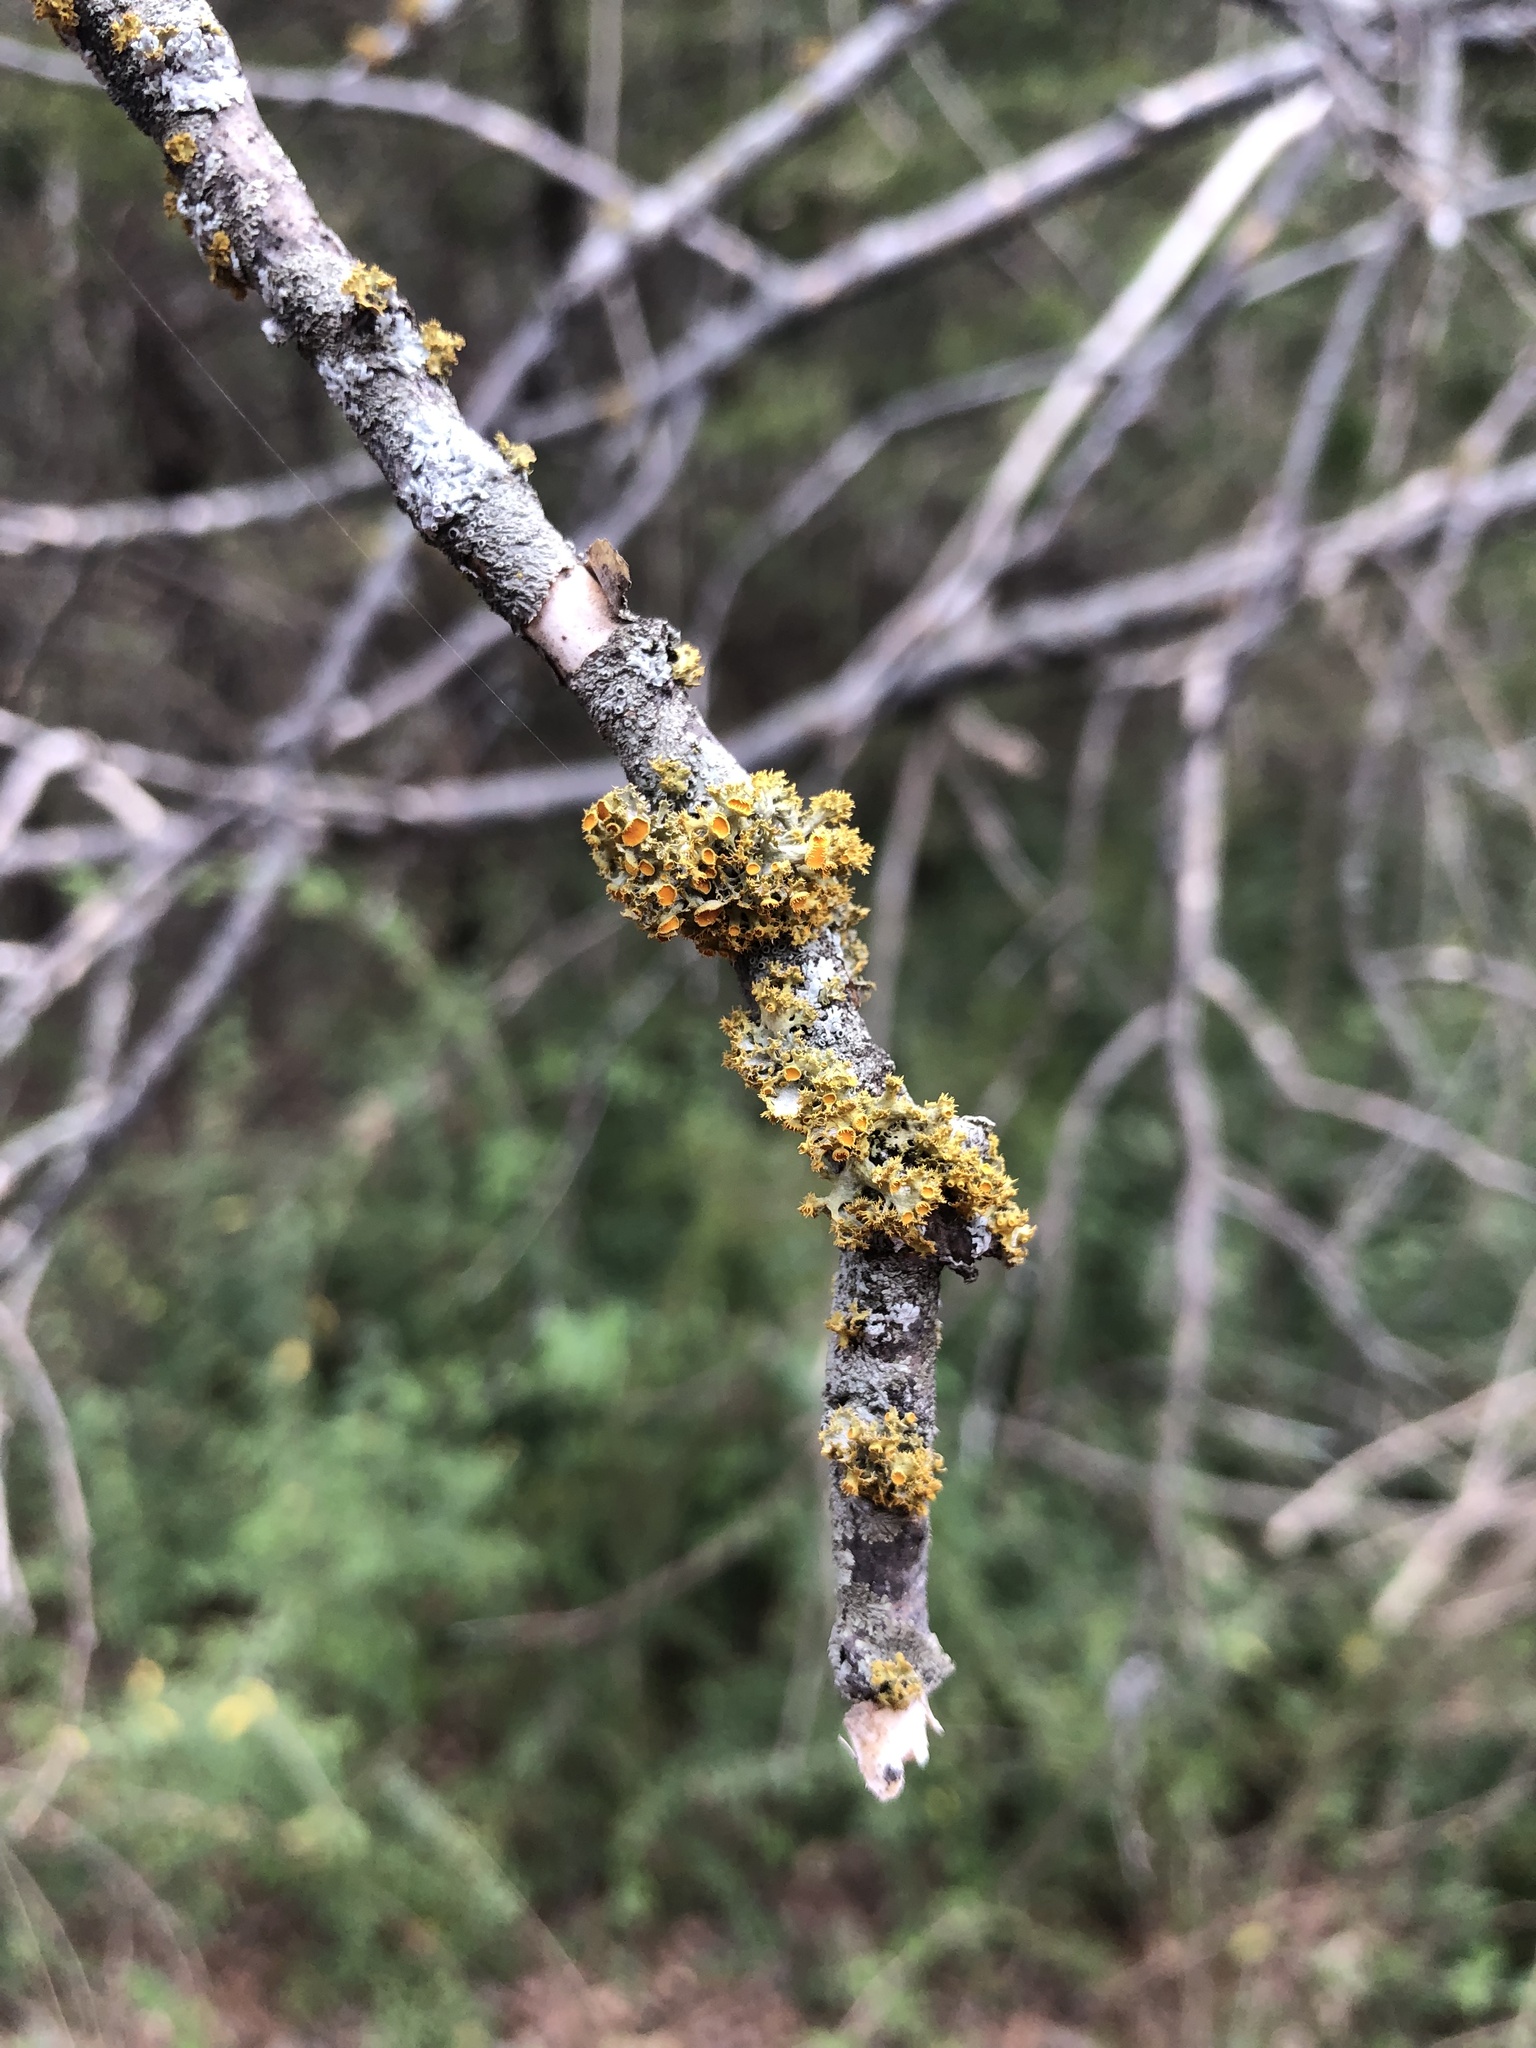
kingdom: Fungi
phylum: Ascomycota
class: Lecanoromycetes
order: Teloschistales
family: Teloschistaceae
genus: Niorma
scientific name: Niorma chrysophthalma
